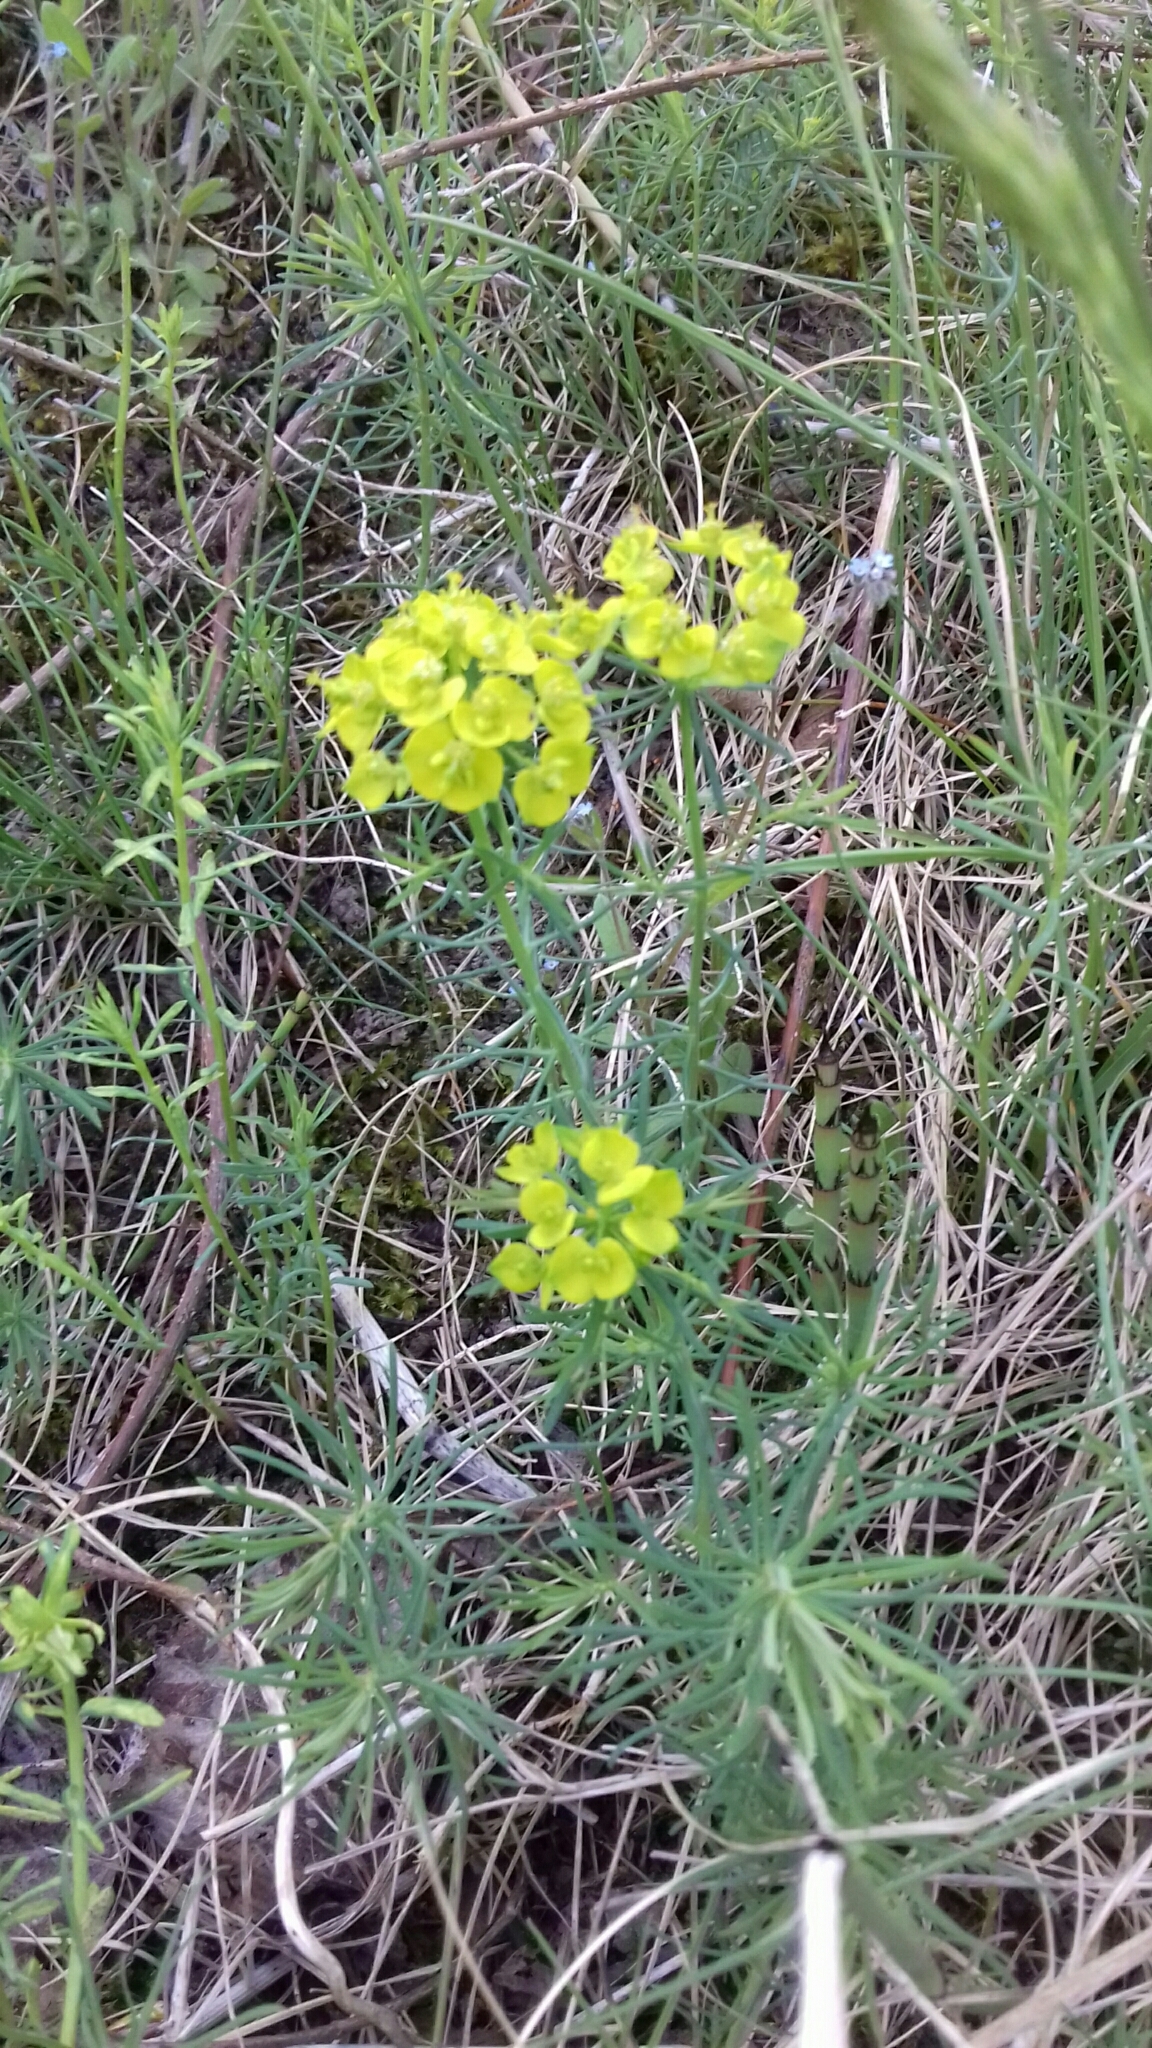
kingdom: Plantae
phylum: Tracheophyta
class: Magnoliopsida
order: Malpighiales
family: Euphorbiaceae
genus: Euphorbia
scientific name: Euphorbia cyparissias
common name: Cypress spurge
